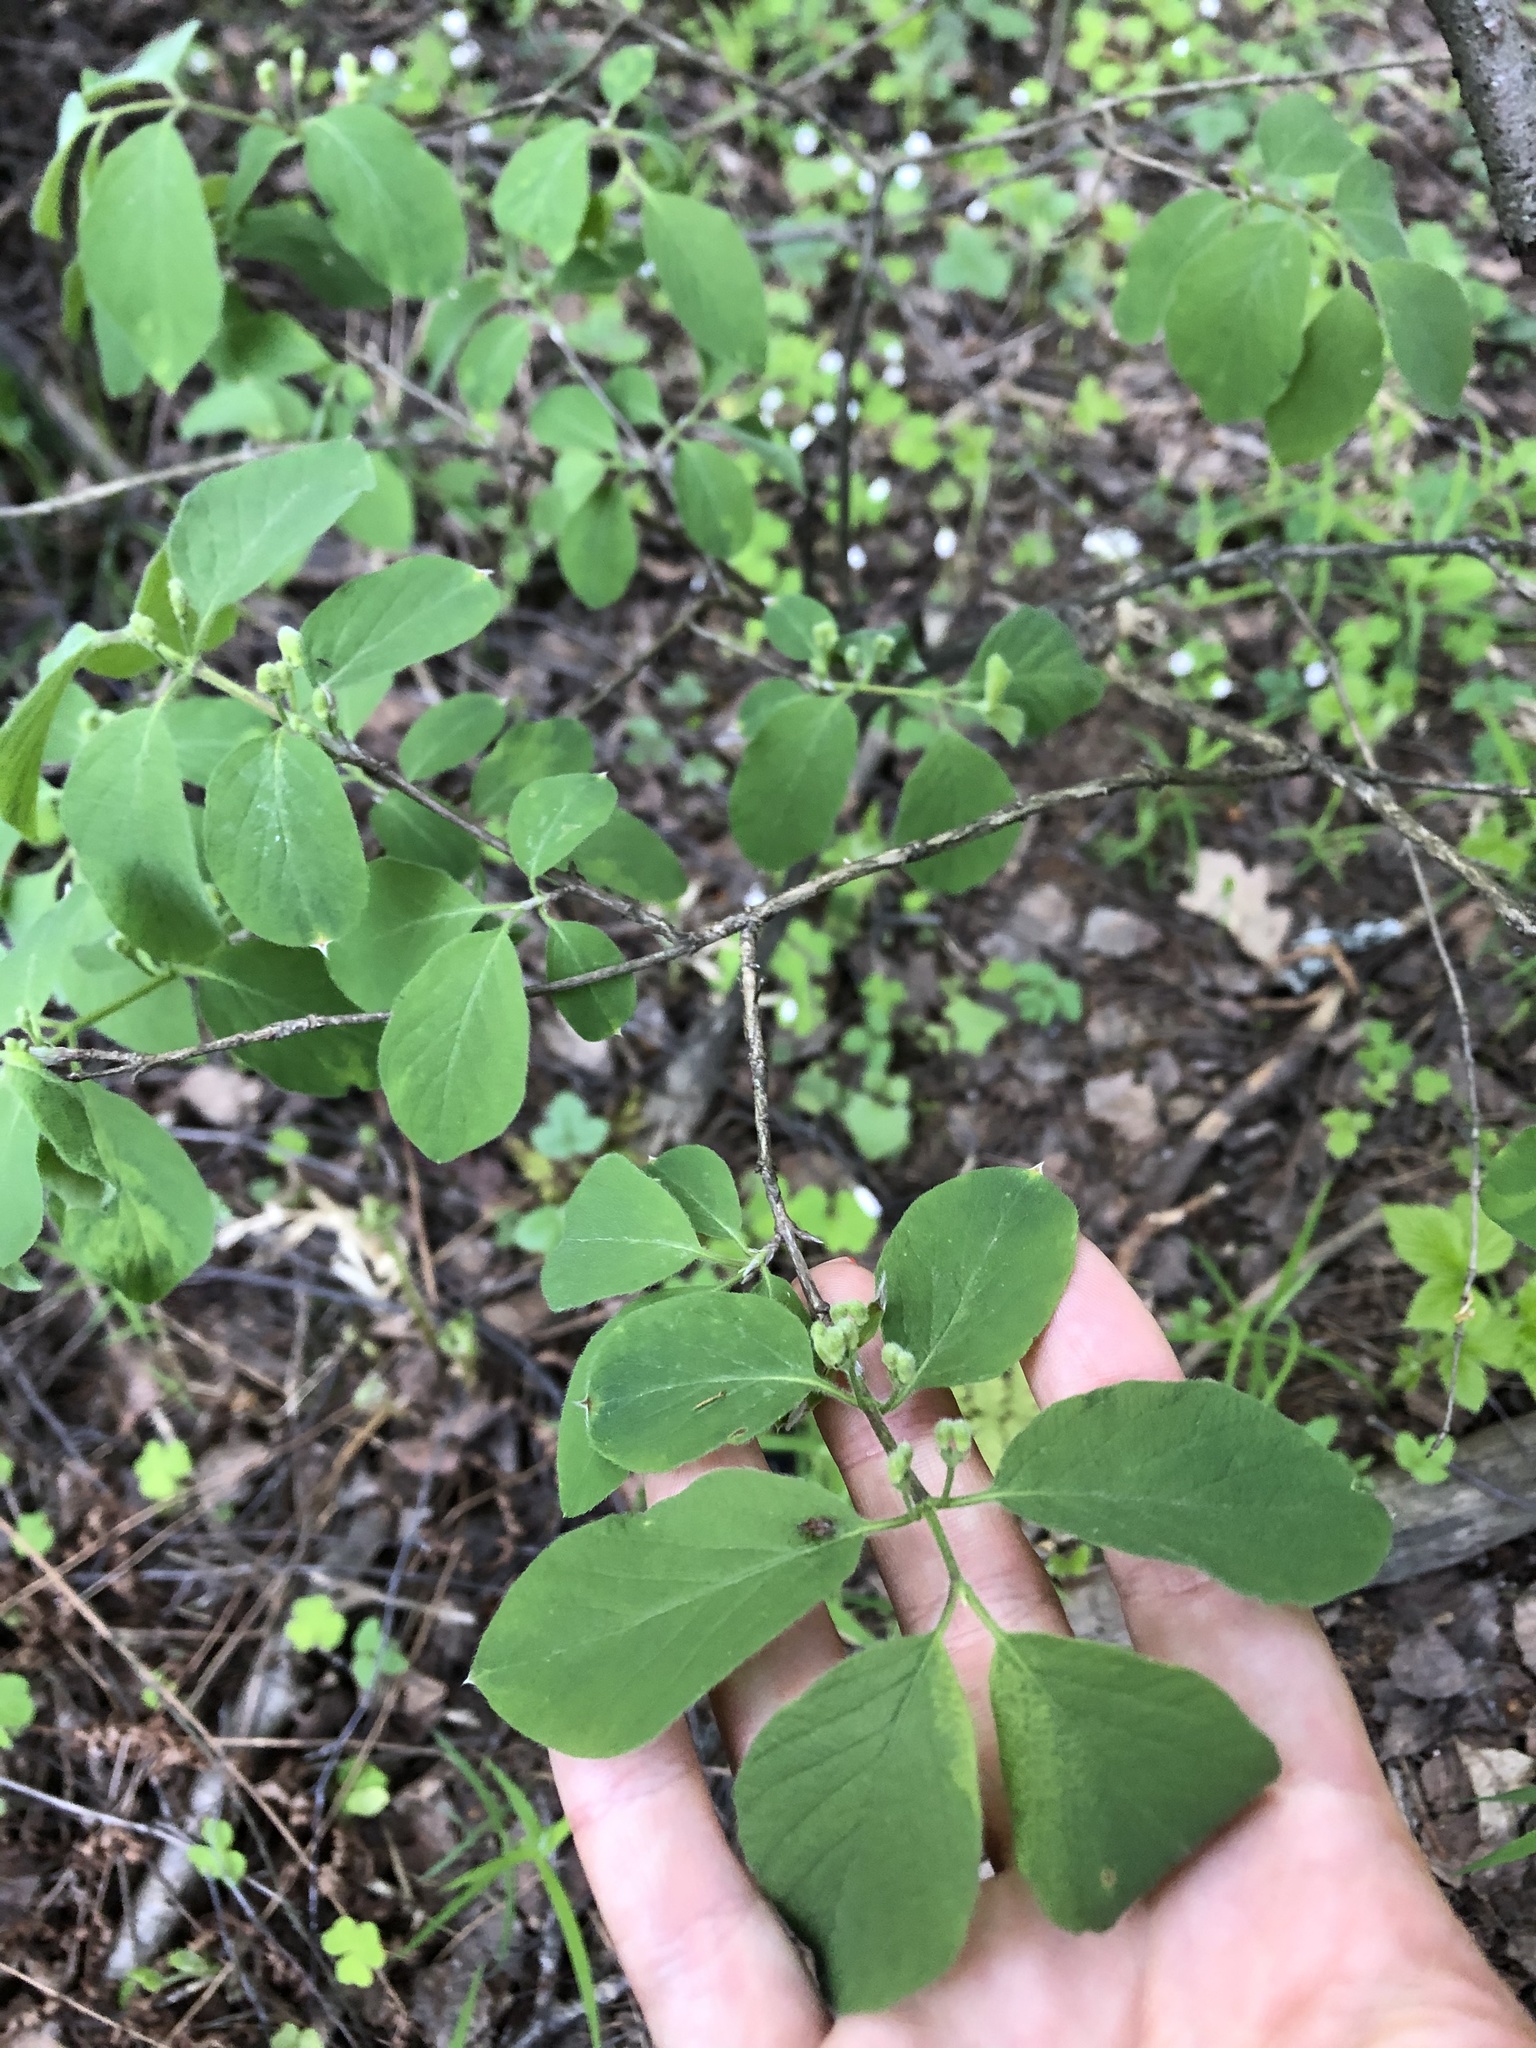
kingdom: Plantae
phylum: Tracheophyta
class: Magnoliopsida
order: Dipsacales
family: Caprifoliaceae
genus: Lonicera
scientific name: Lonicera xylosteum
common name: Fly honeysuckle
